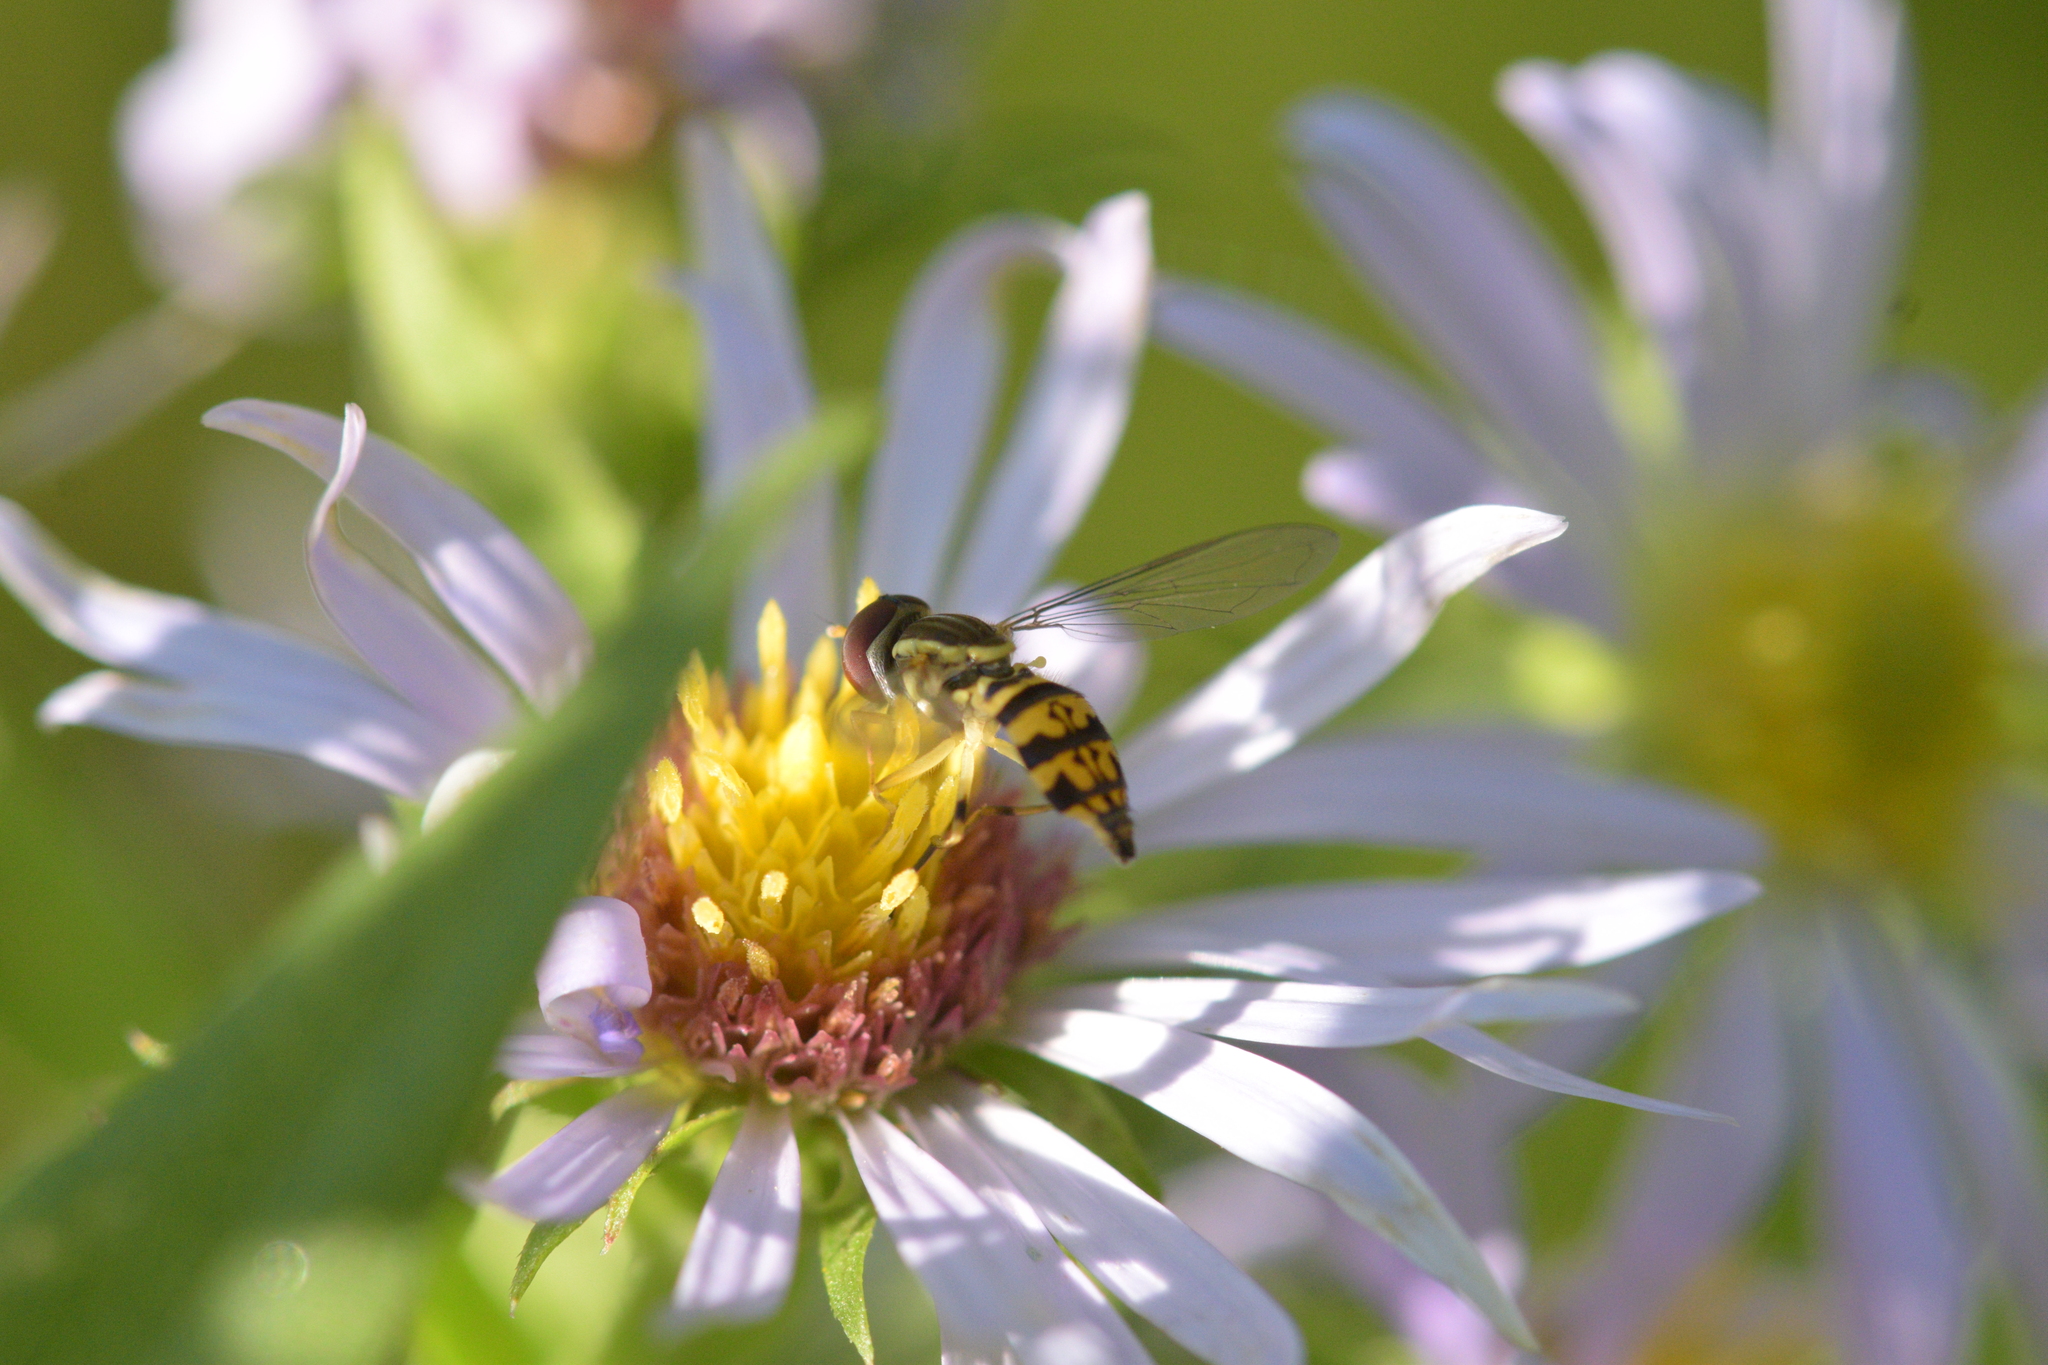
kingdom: Animalia
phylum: Arthropoda
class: Insecta
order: Diptera
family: Syrphidae
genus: Toxomerus
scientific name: Toxomerus geminatus
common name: Eastern calligrapher
